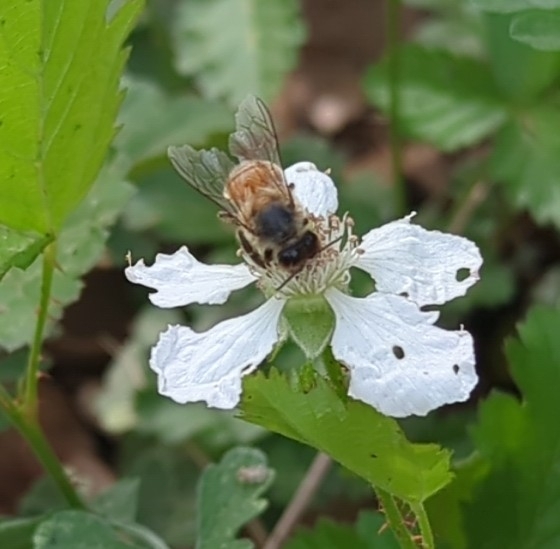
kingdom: Animalia
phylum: Arthropoda
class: Insecta
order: Hymenoptera
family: Apidae
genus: Apis
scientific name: Apis mellifera
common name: Honey bee
